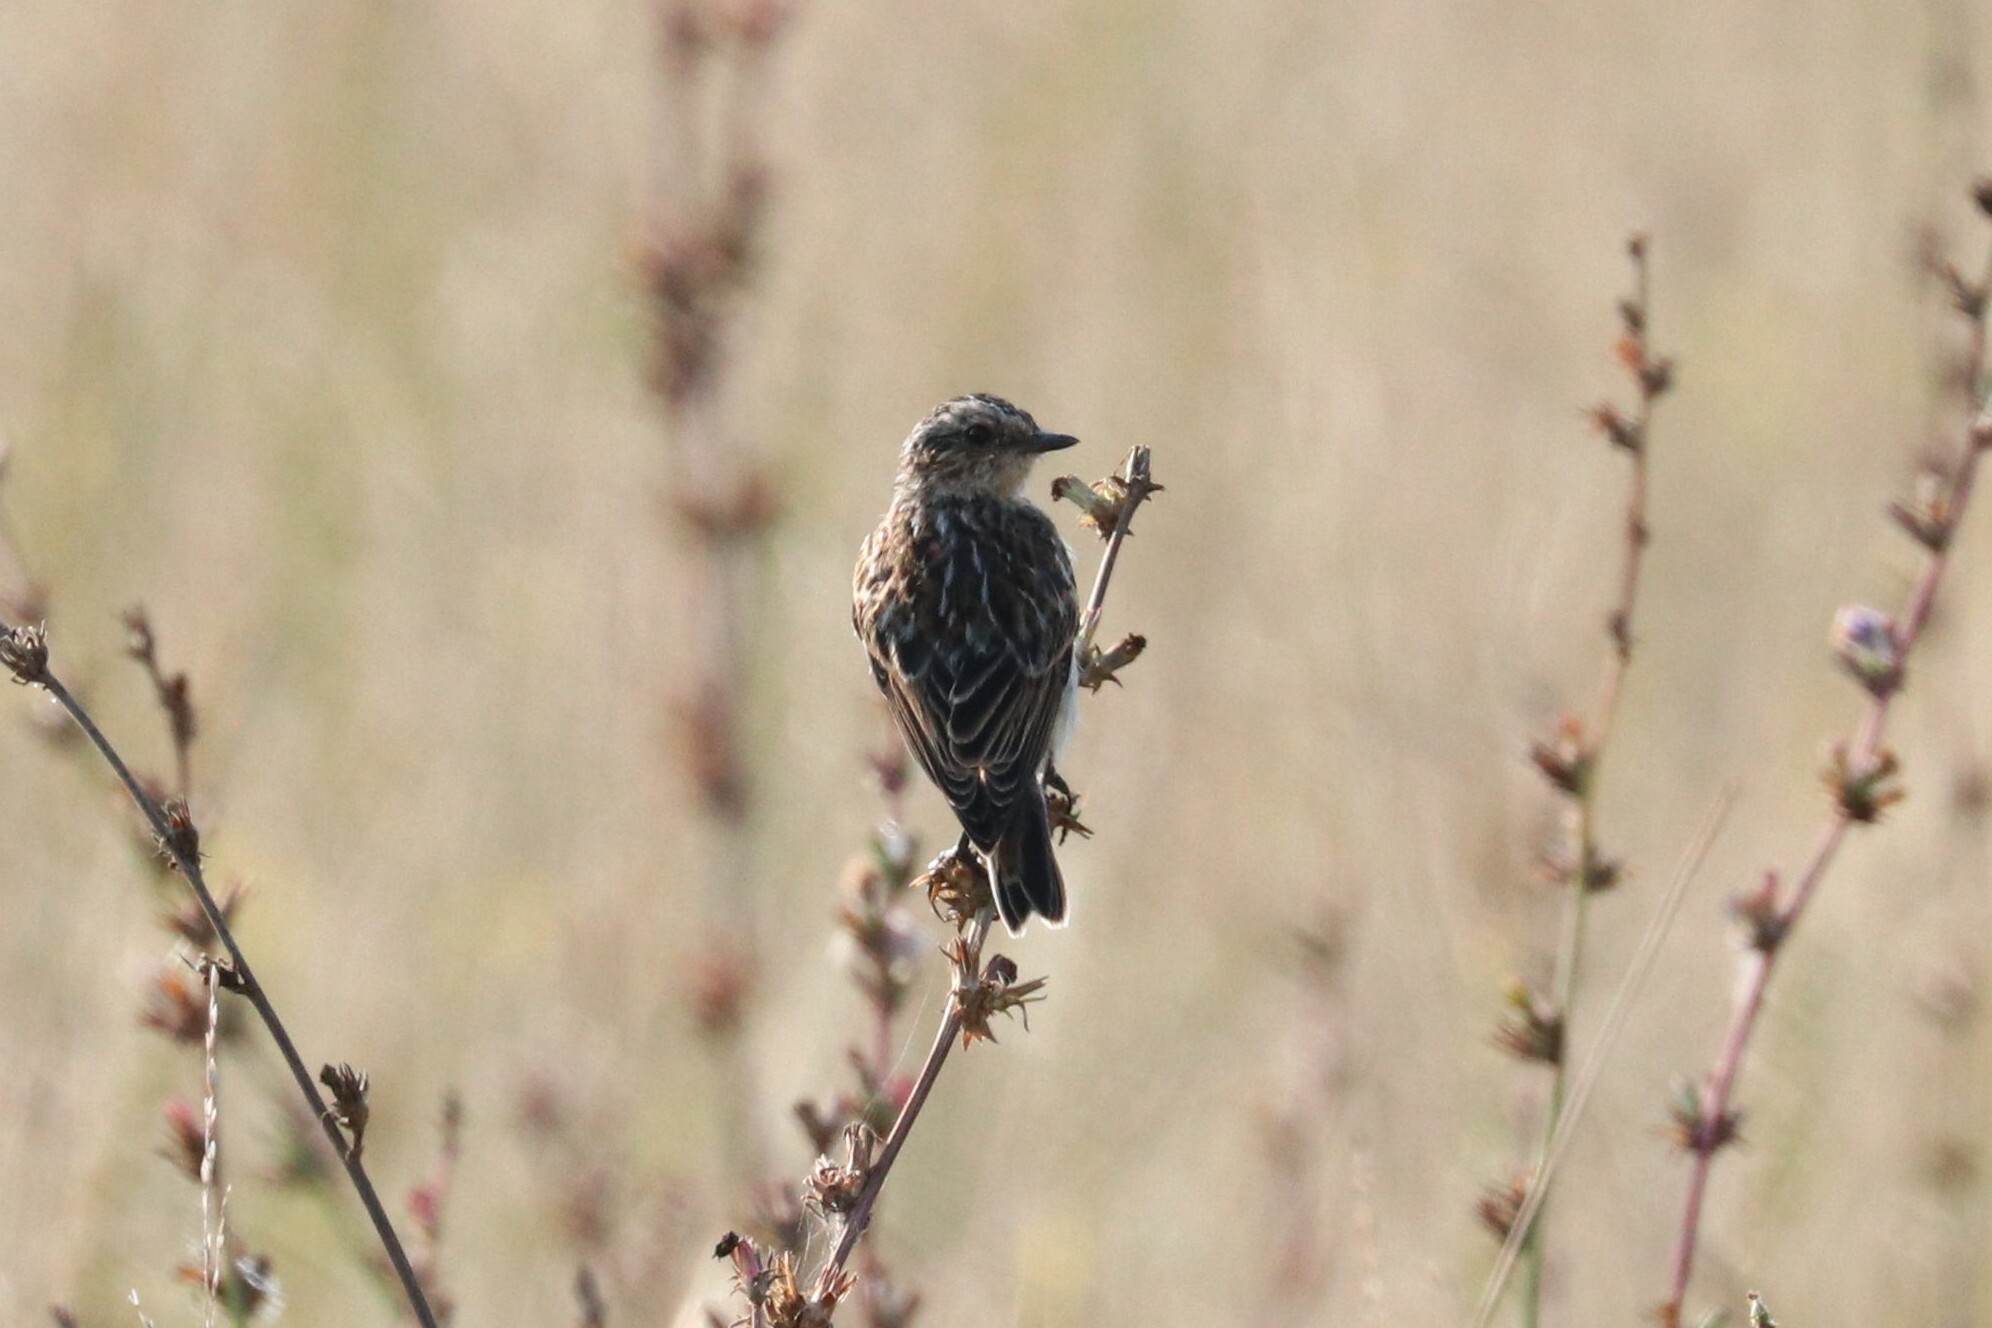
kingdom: Animalia
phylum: Chordata
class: Aves
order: Passeriformes
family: Muscicapidae
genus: Saxicola
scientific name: Saxicola rubetra
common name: Whinchat
